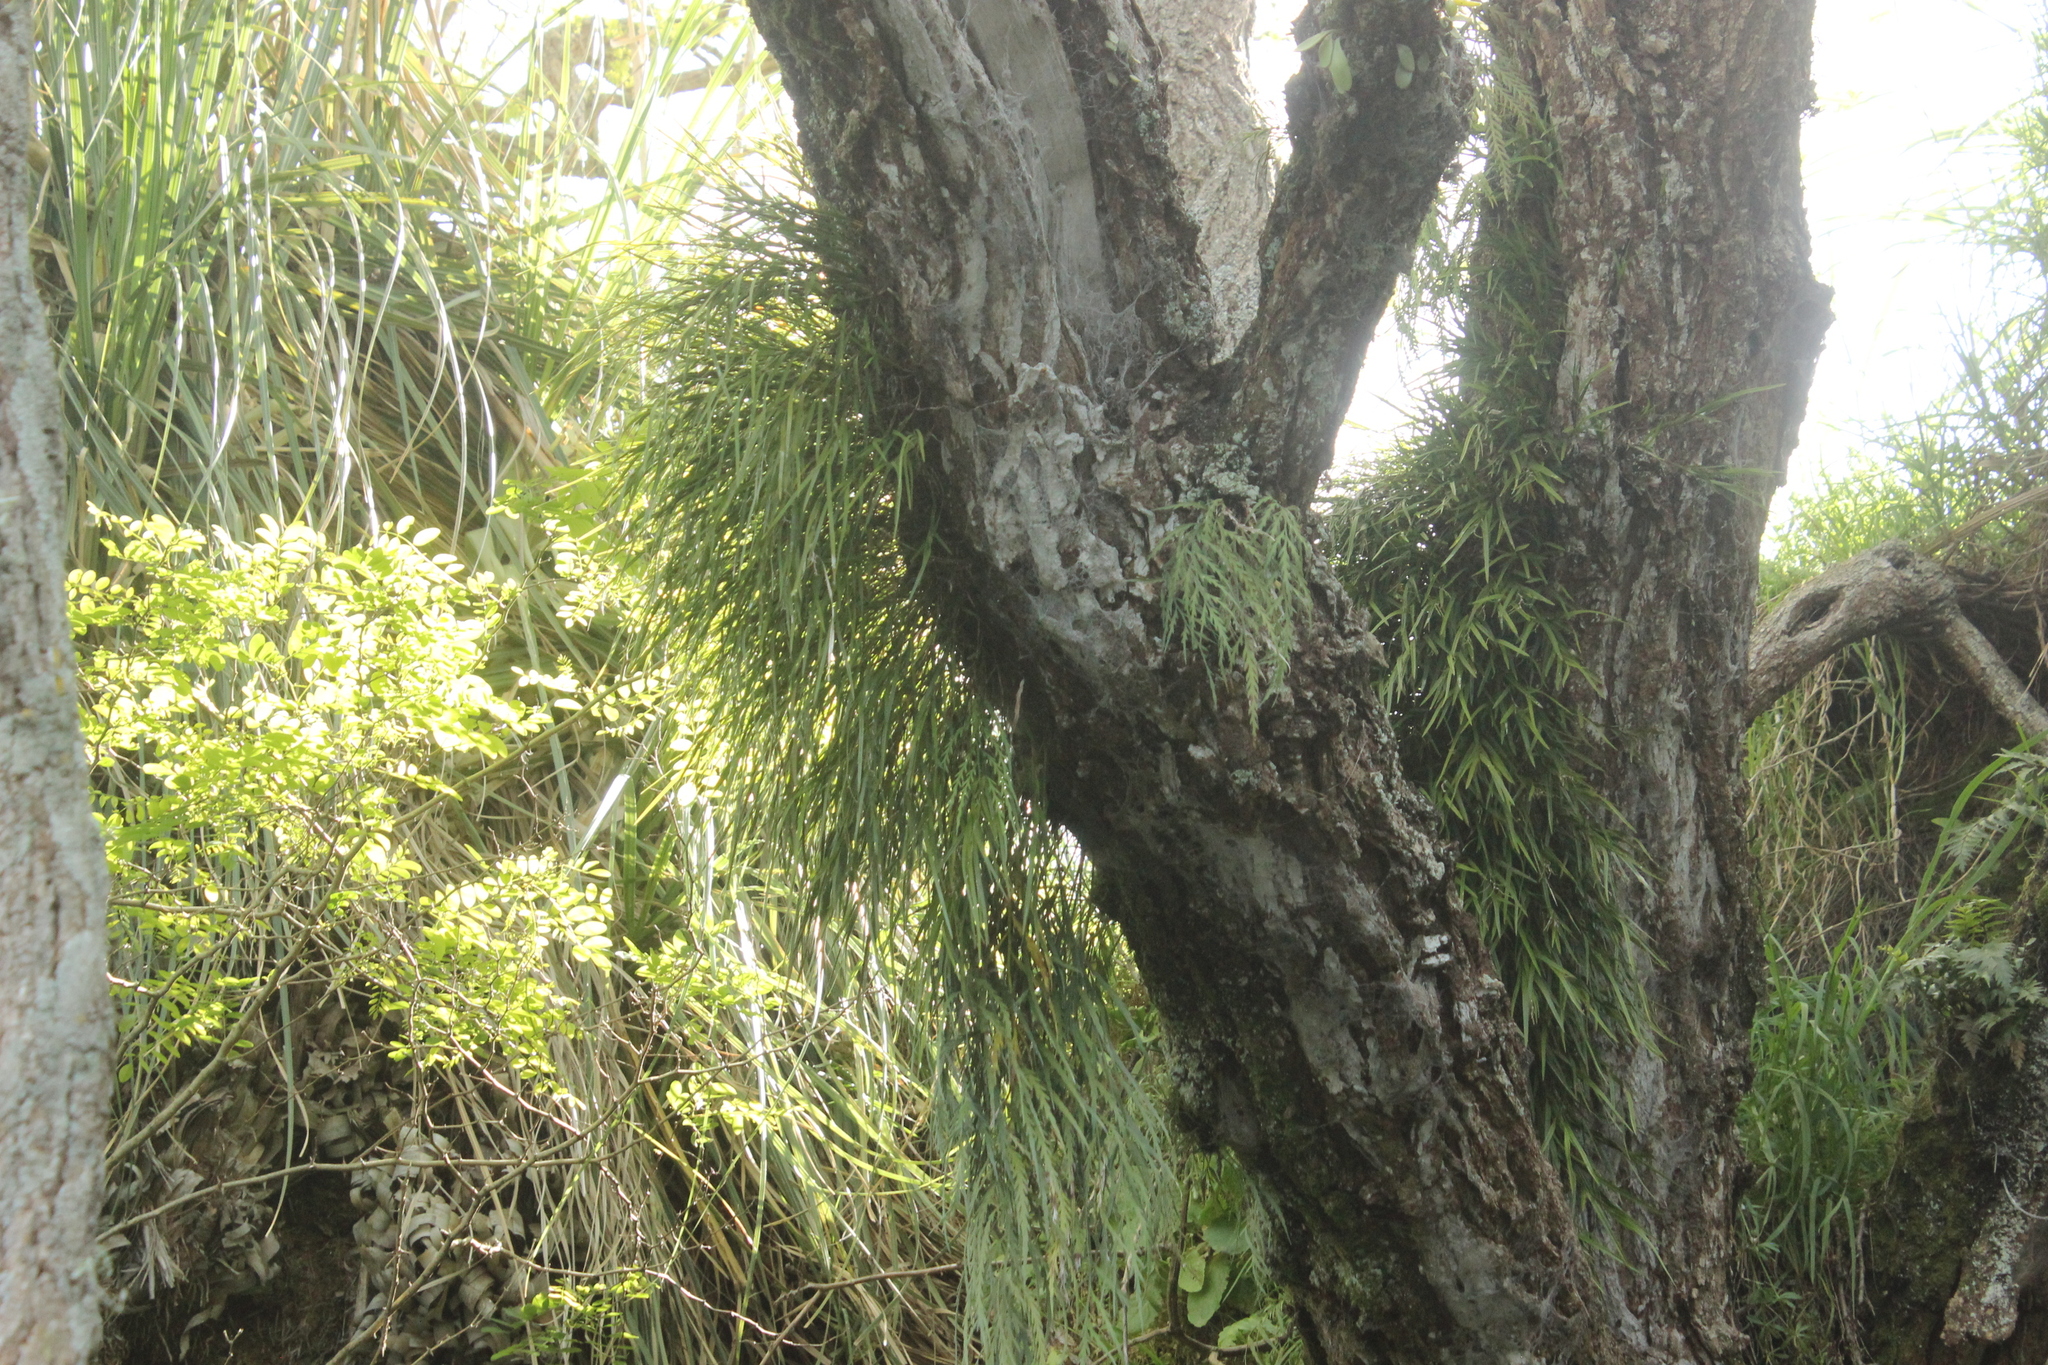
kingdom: Plantae
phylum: Tracheophyta
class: Liliopsida
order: Asparagales
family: Orchidaceae
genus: Earina
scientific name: Earina mucronata
